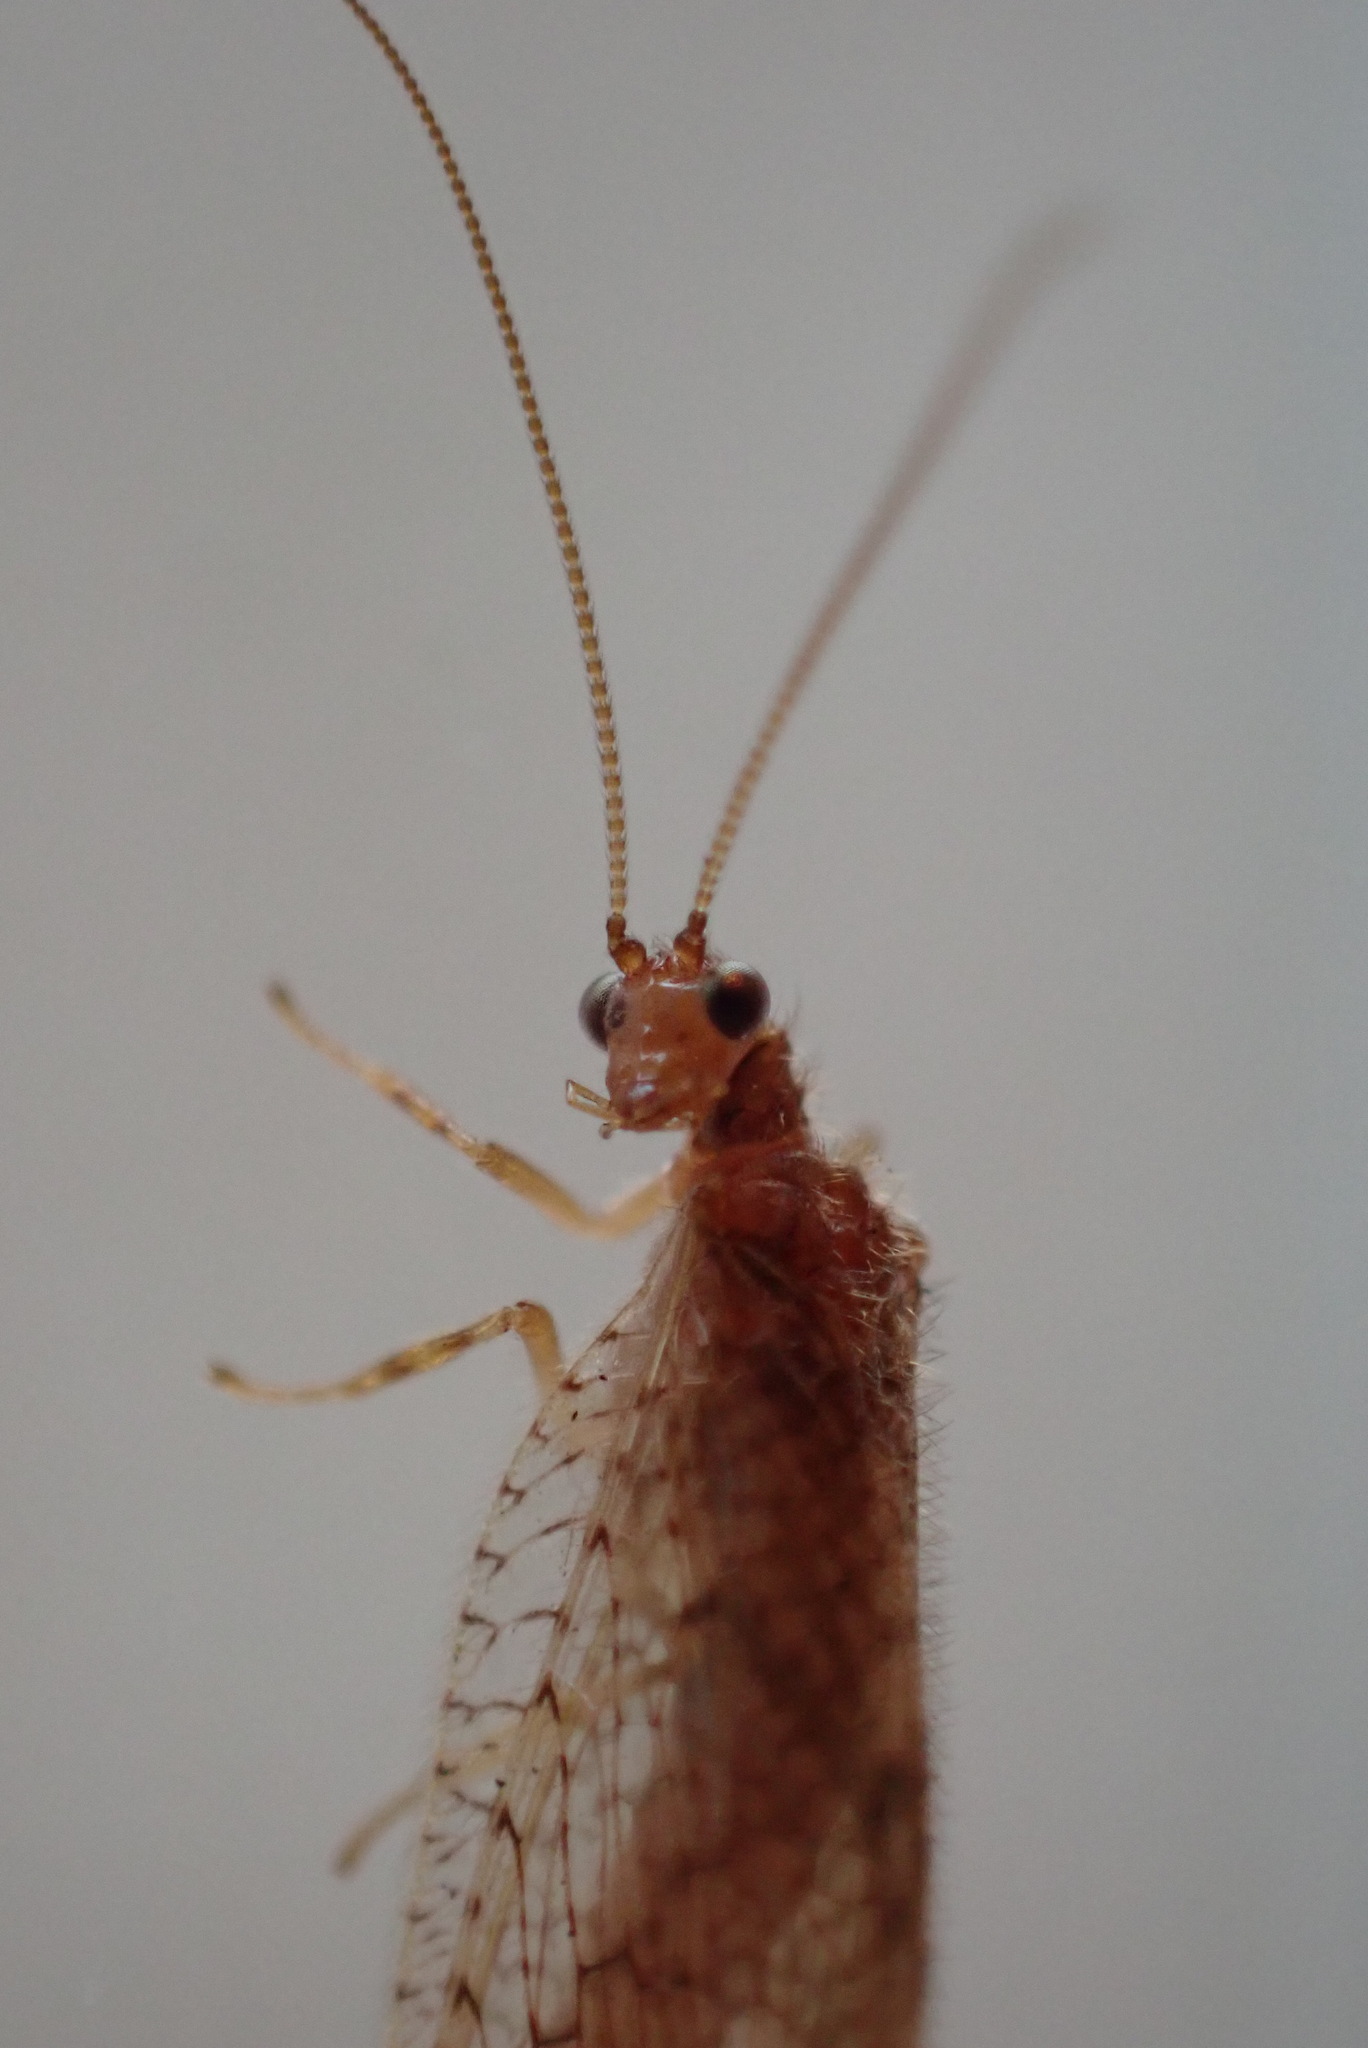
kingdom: Animalia
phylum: Arthropoda
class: Insecta
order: Neuroptera
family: Hemerobiidae
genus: Micromus
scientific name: Micromus posticus
